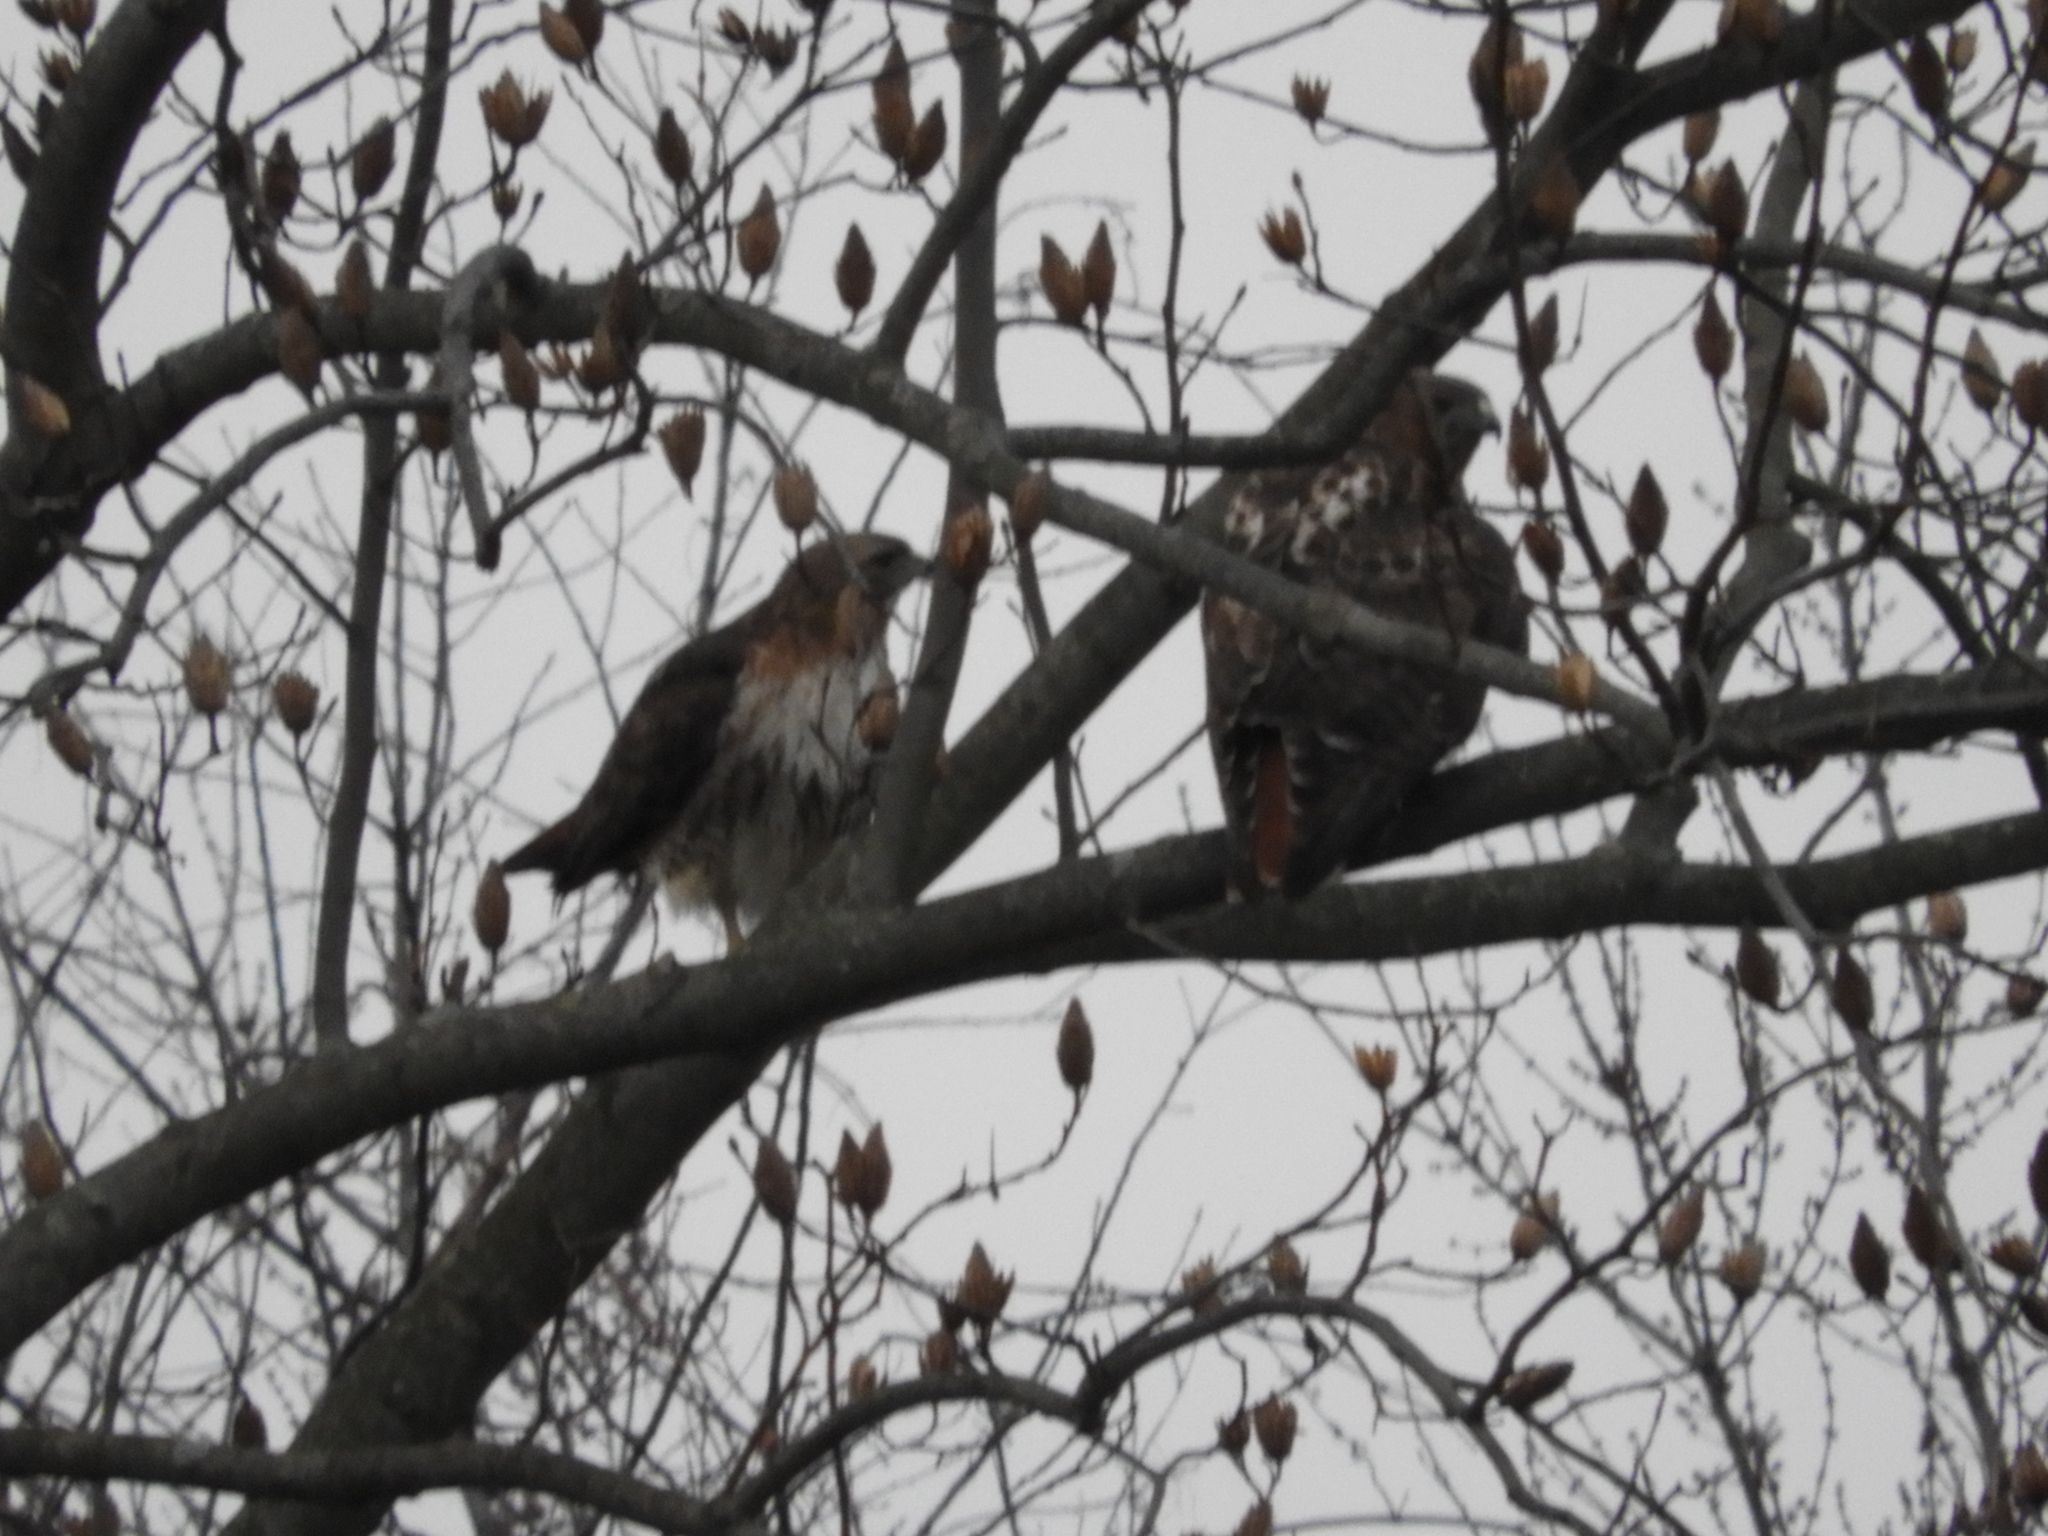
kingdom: Animalia
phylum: Chordata
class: Aves
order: Accipitriformes
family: Accipitridae
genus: Buteo
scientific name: Buteo jamaicensis
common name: Red-tailed hawk
